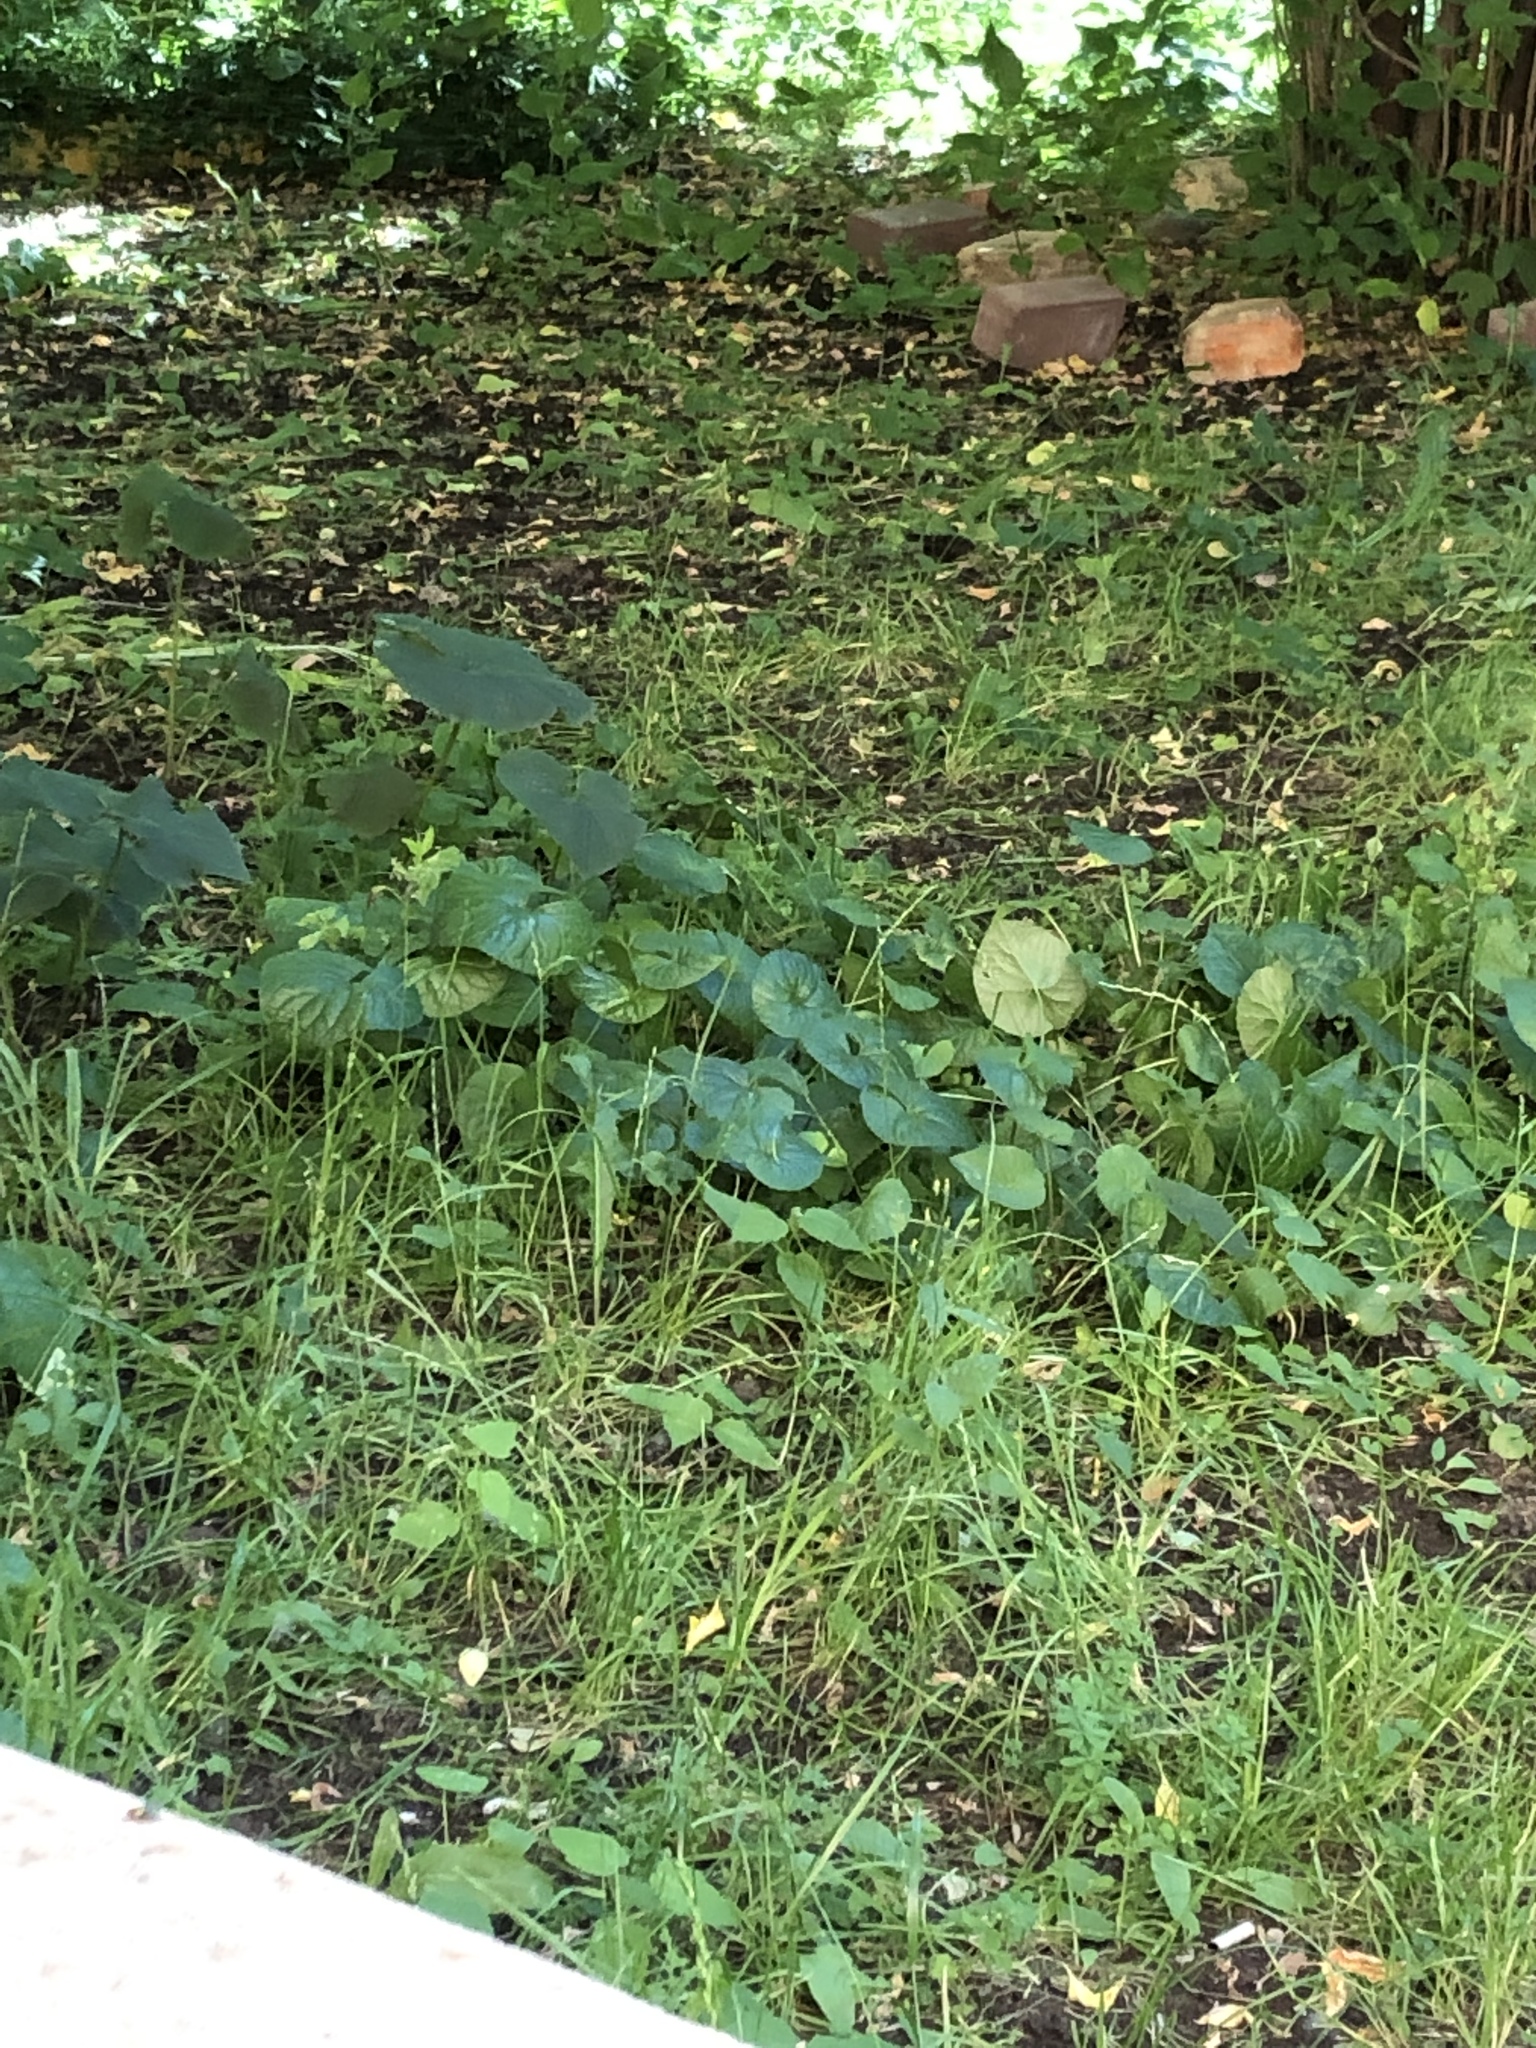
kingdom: Plantae
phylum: Tracheophyta
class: Magnoliopsida
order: Malpighiales
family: Violaceae
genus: Viola
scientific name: Viola odorata
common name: Sweet violet
